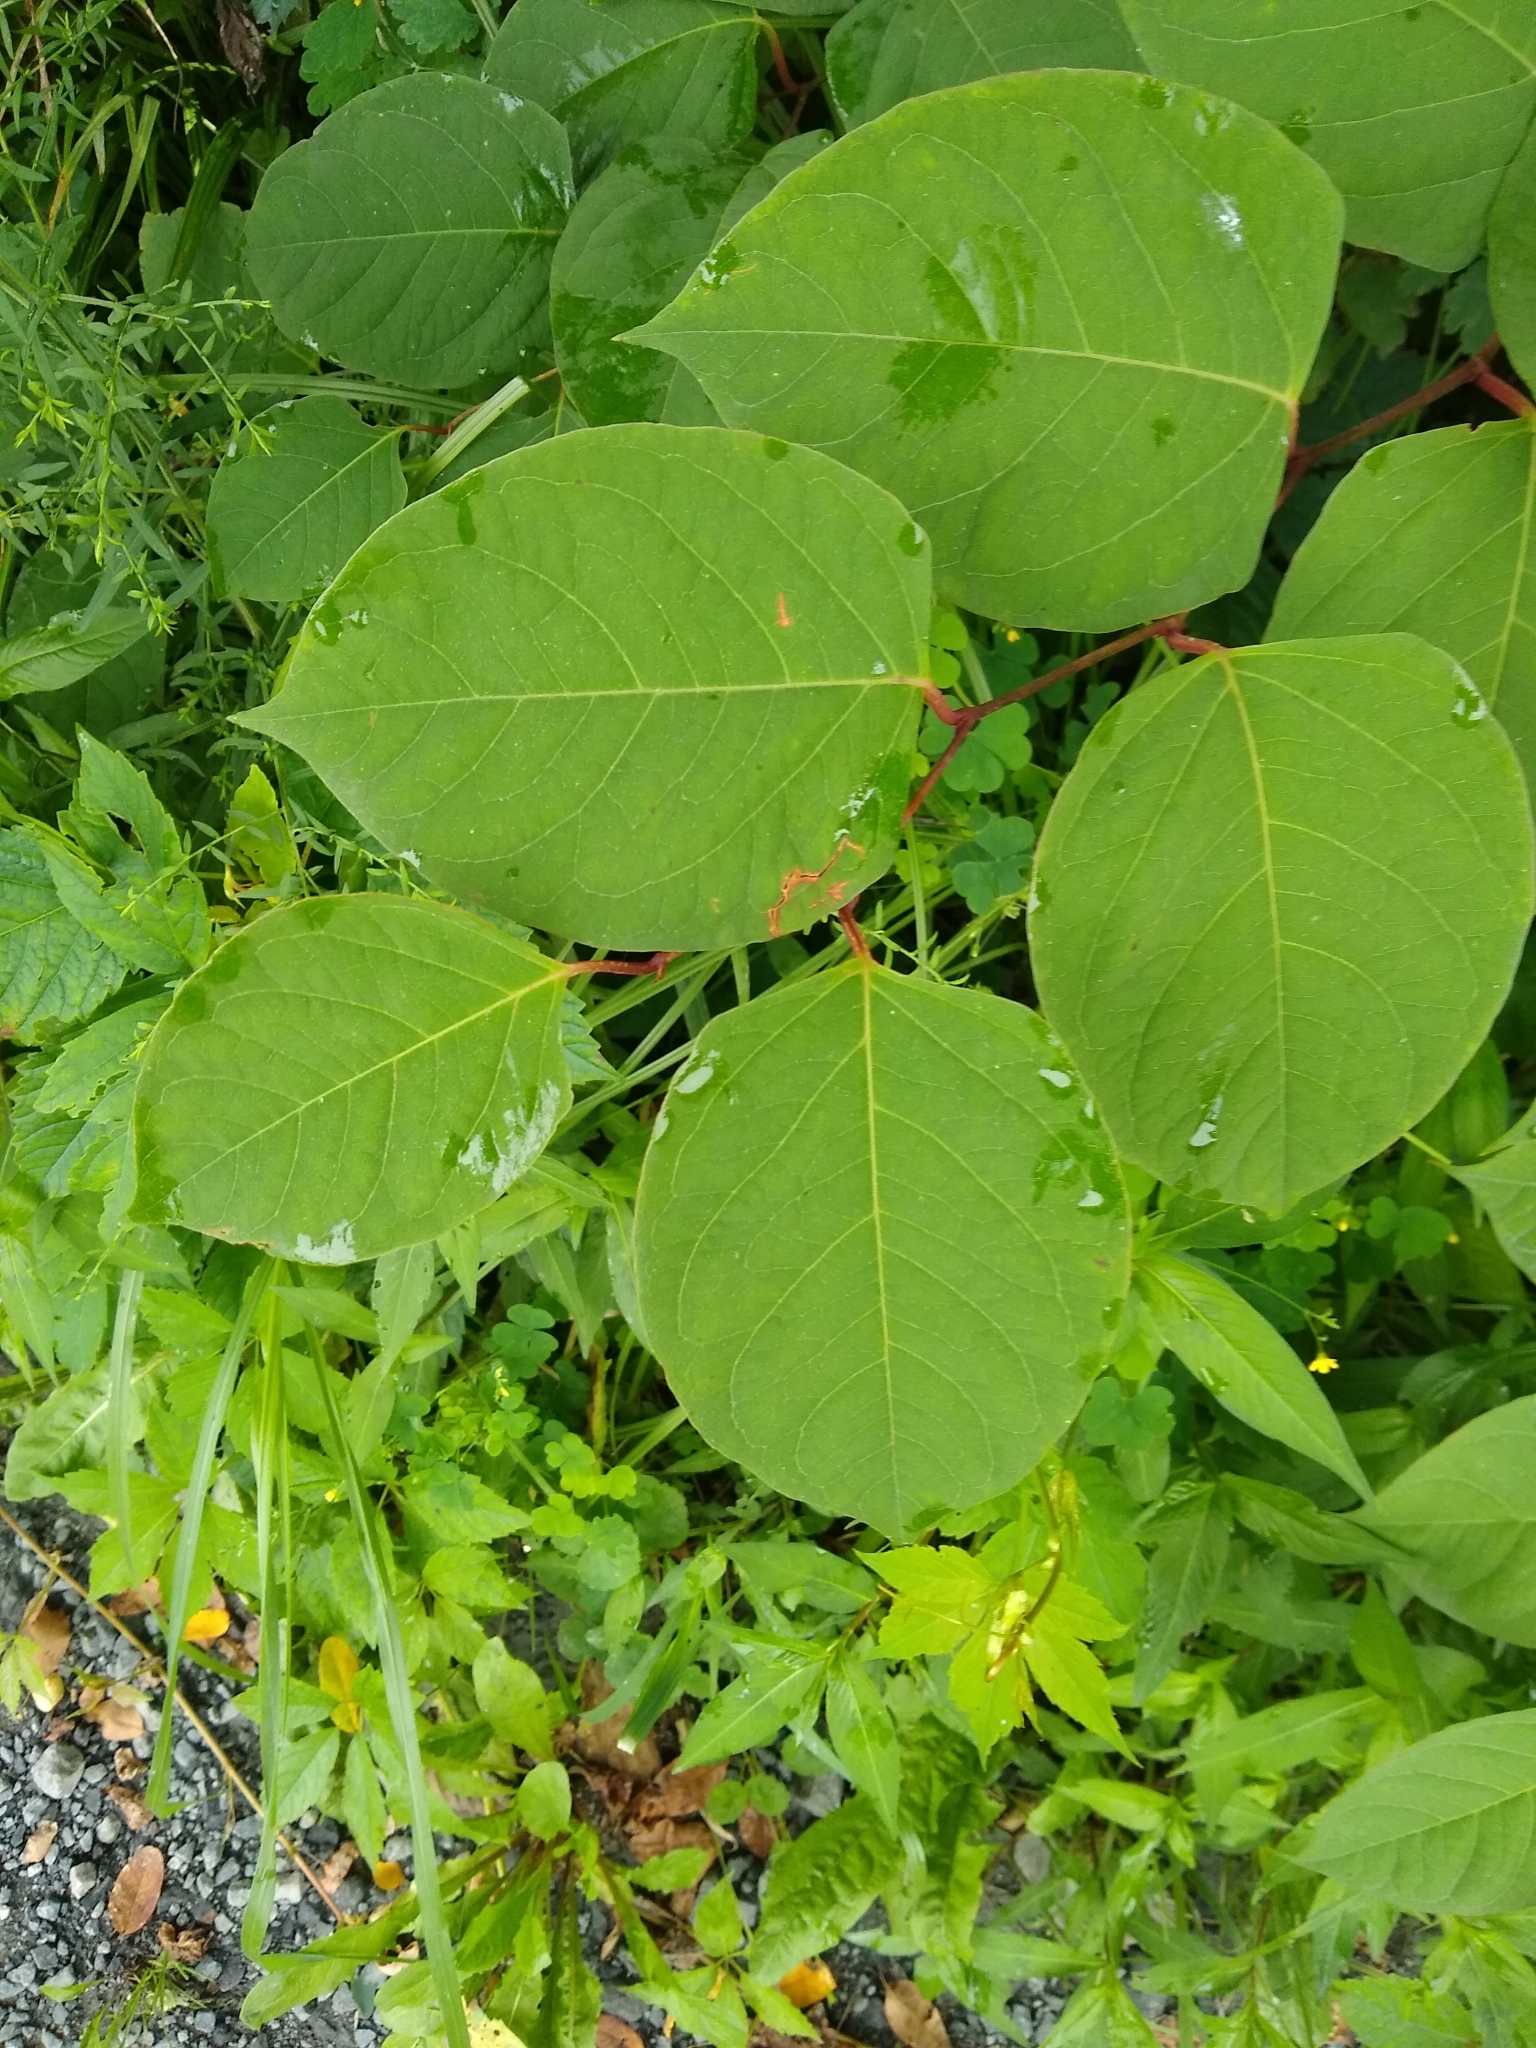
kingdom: Plantae
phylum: Tracheophyta
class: Magnoliopsida
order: Caryophyllales
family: Polygonaceae
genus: Reynoutria
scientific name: Reynoutria japonica
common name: Japanese knotweed
